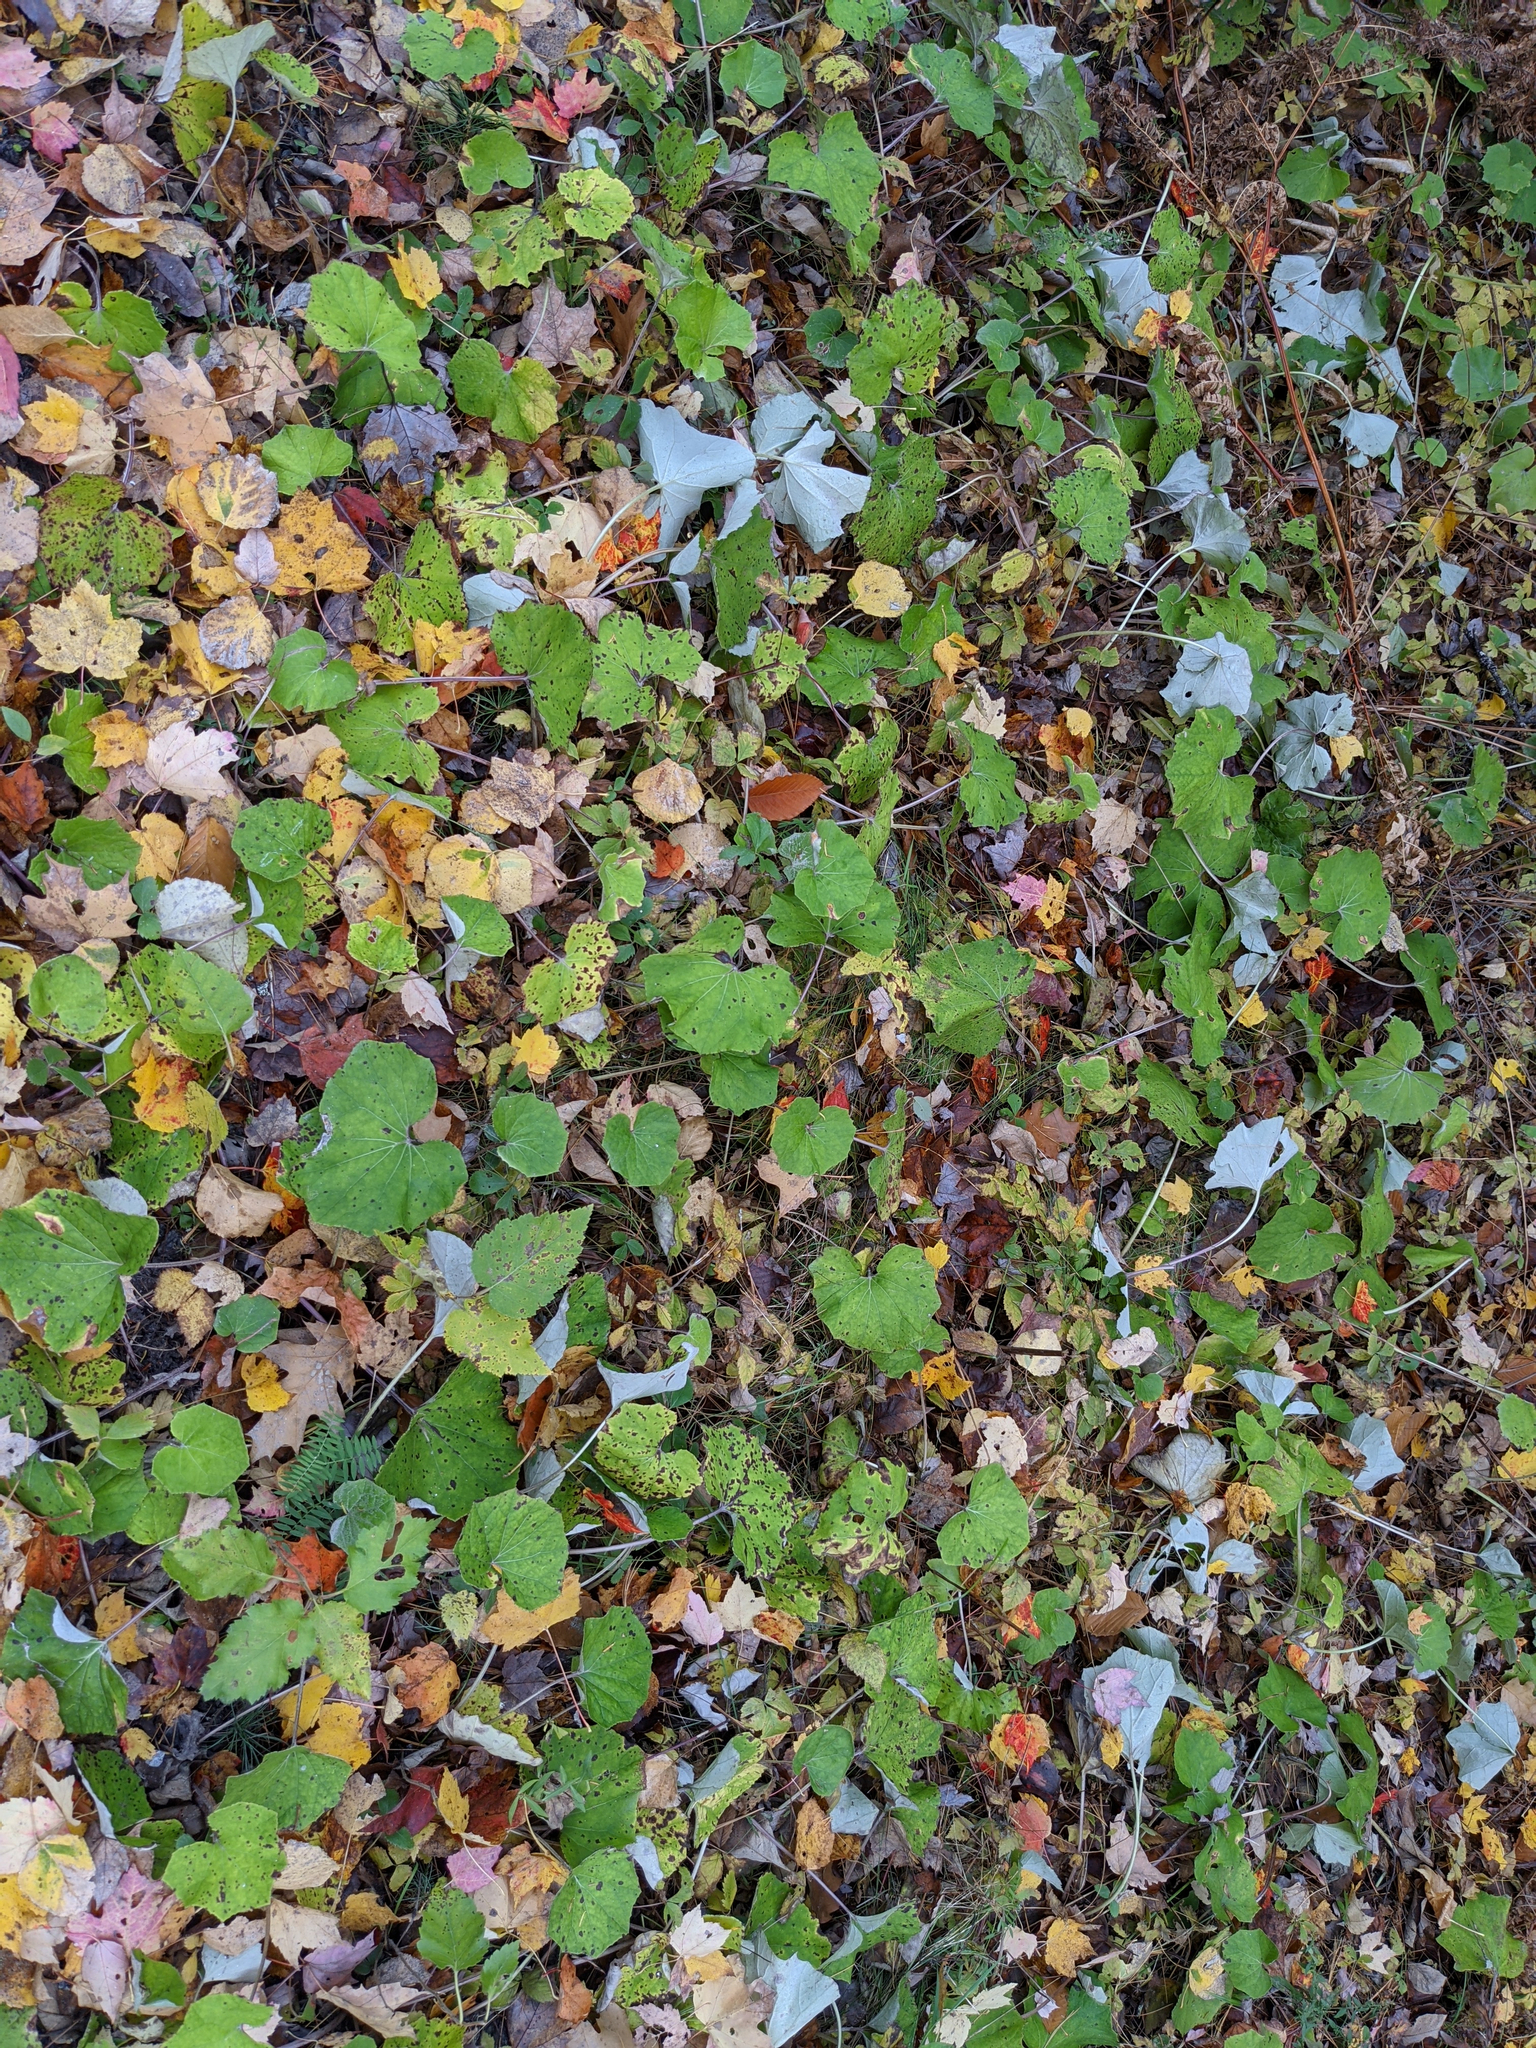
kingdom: Plantae
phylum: Tracheophyta
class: Magnoliopsida
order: Asterales
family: Asteraceae
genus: Tussilago
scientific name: Tussilago farfara
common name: Coltsfoot
